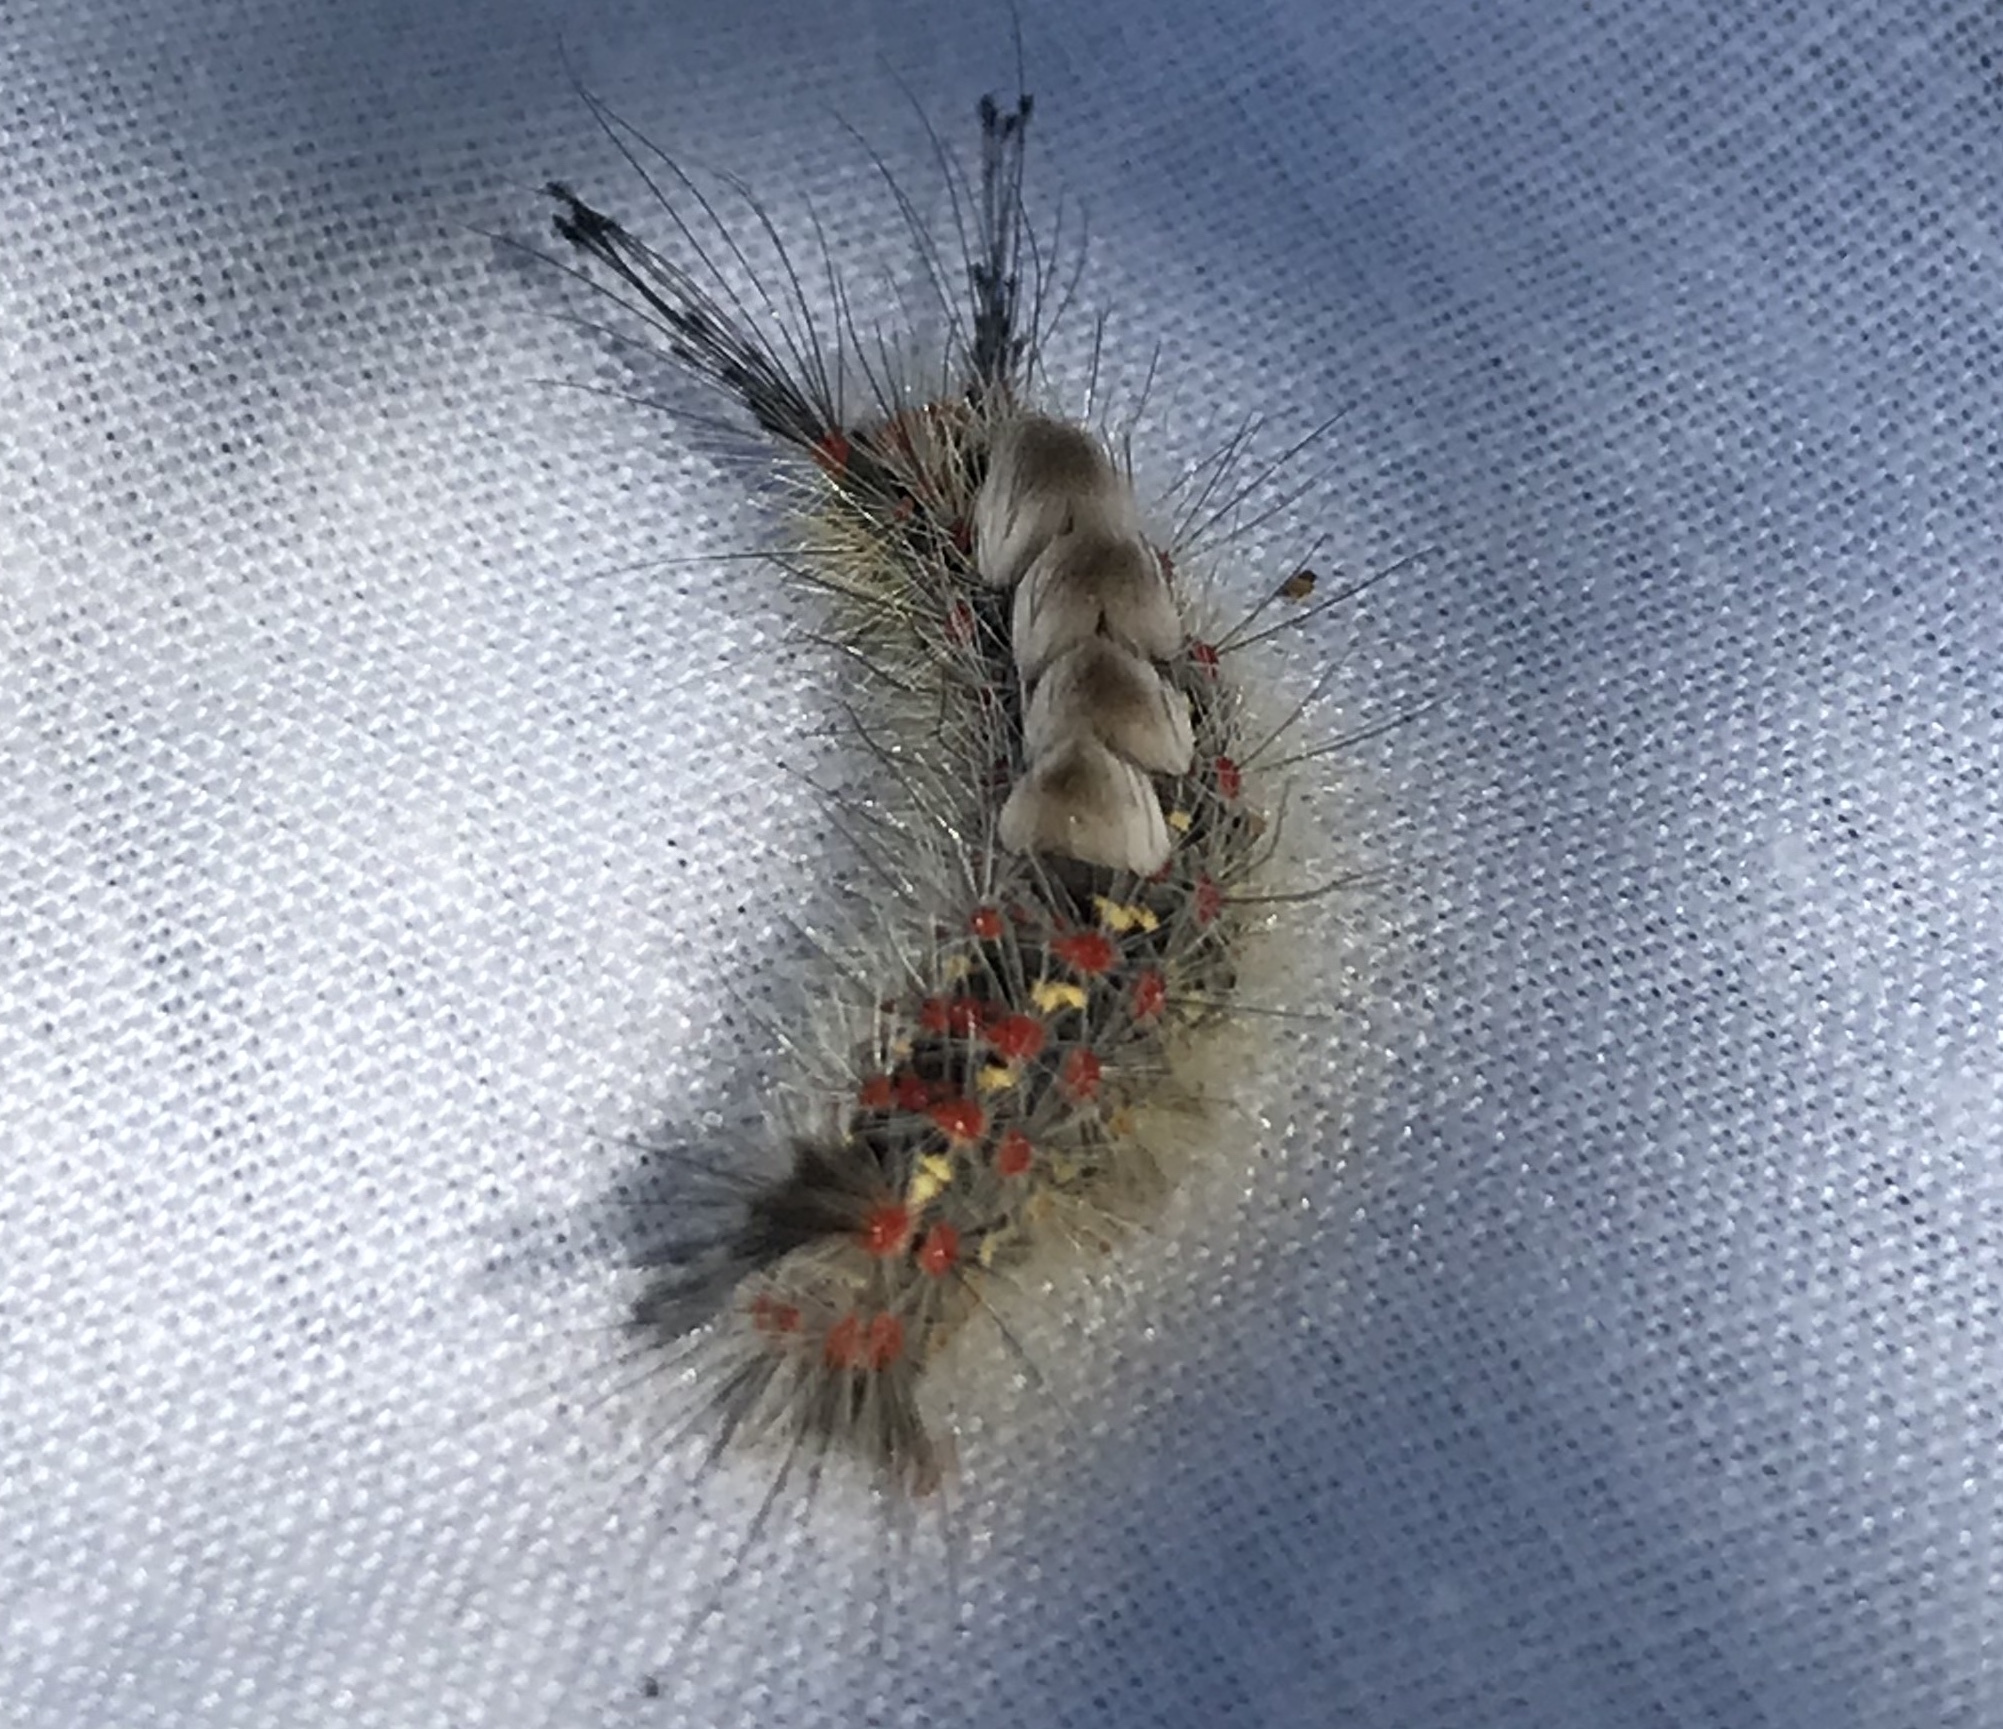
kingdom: Animalia
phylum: Arthropoda
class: Insecta
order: Lepidoptera
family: Erebidae
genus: Orgyia
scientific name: Orgyia
